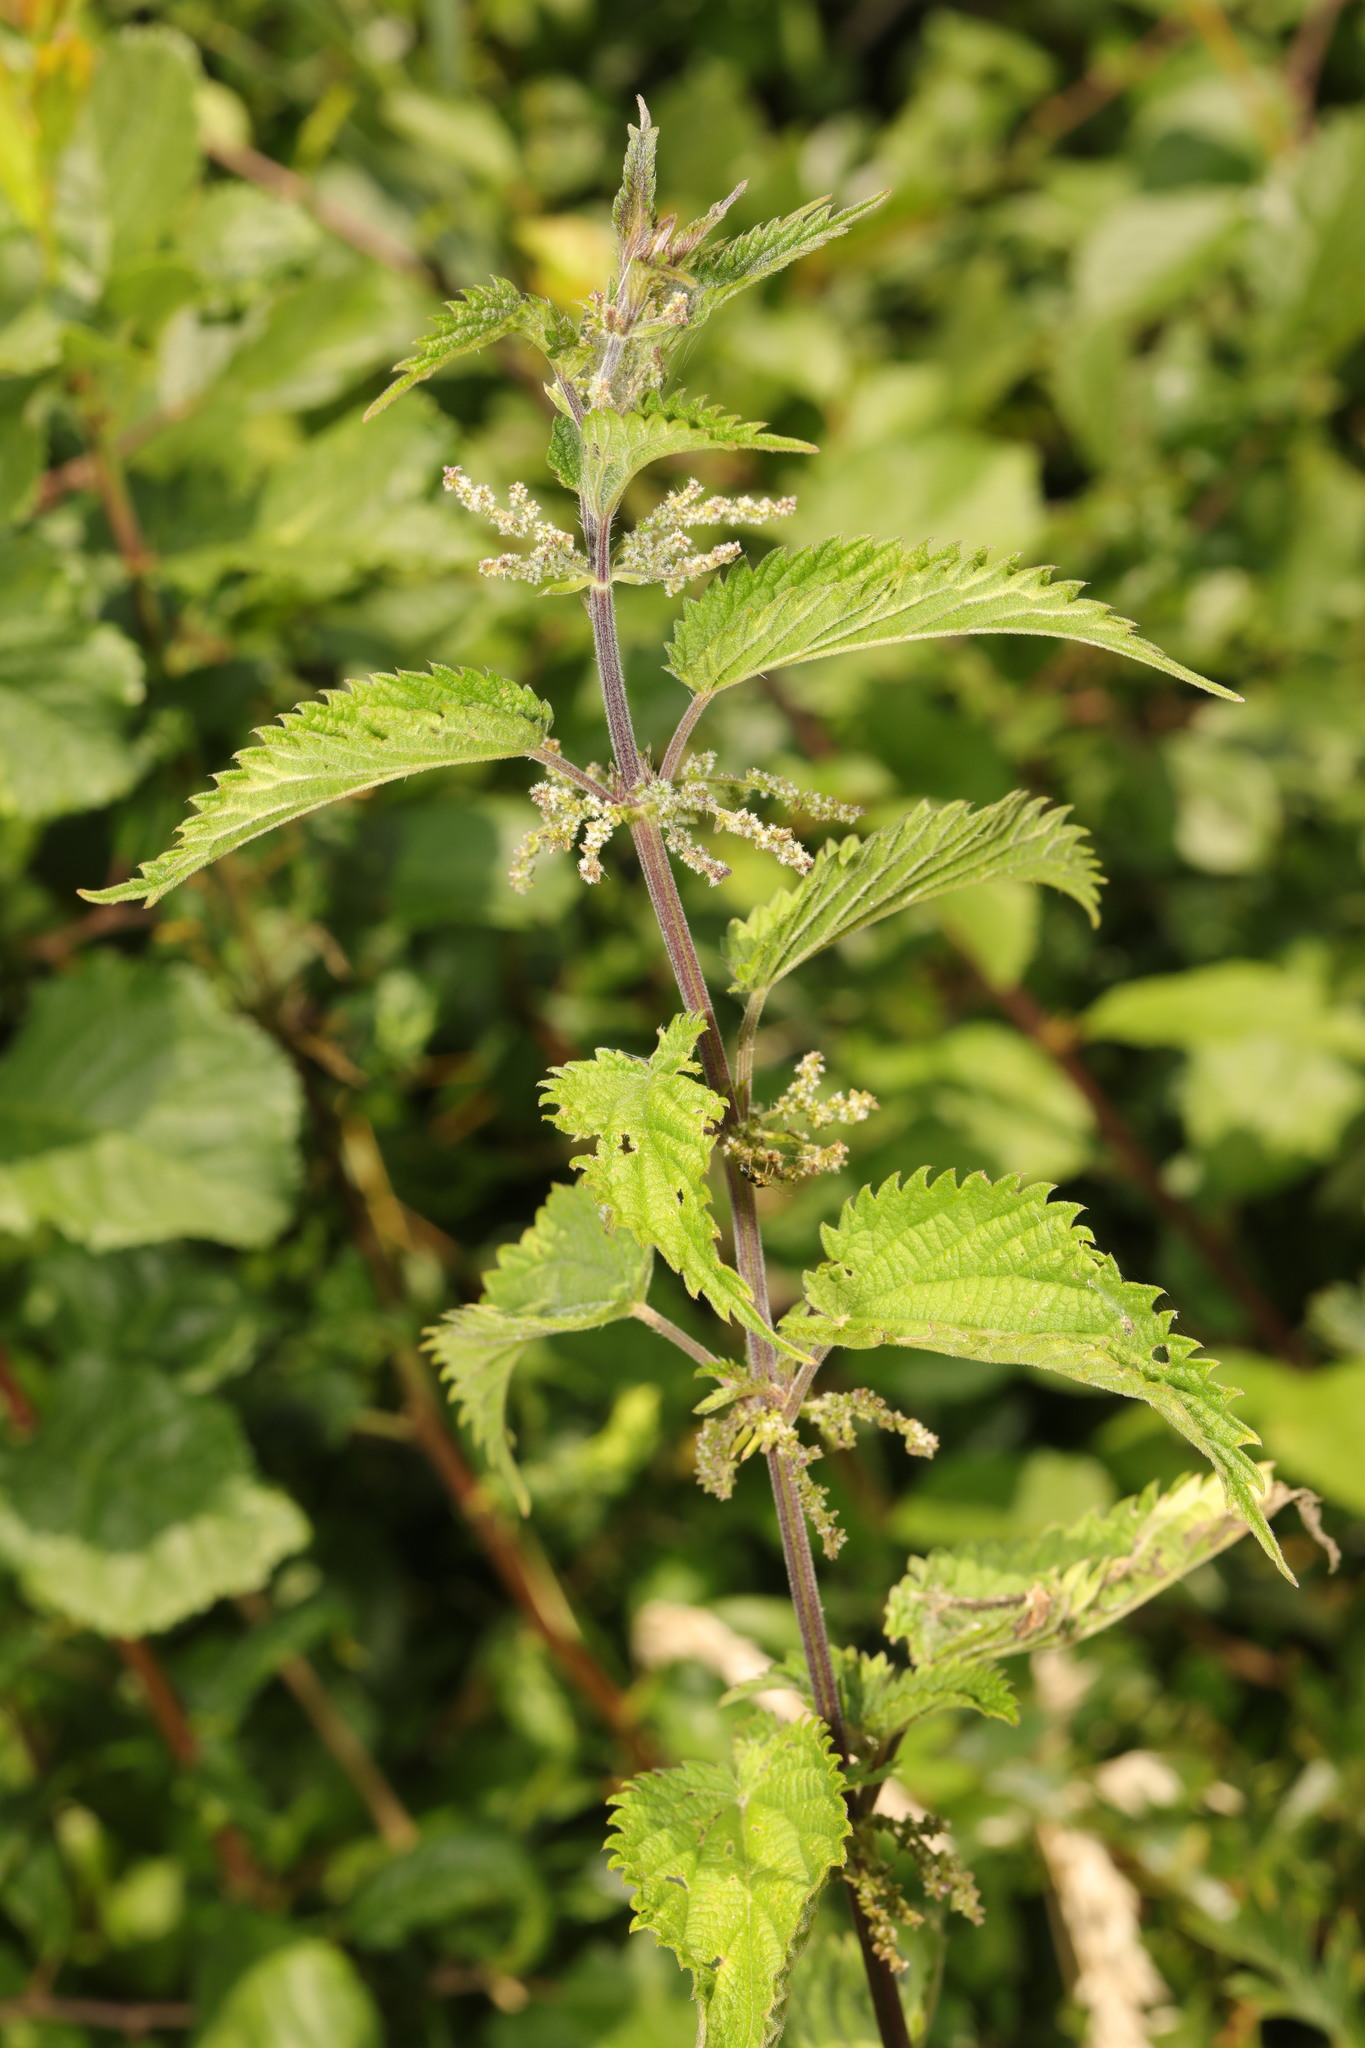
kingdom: Plantae
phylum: Tracheophyta
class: Magnoliopsida
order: Rosales
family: Urticaceae
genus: Urtica
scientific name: Urtica dioica
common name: Common nettle
